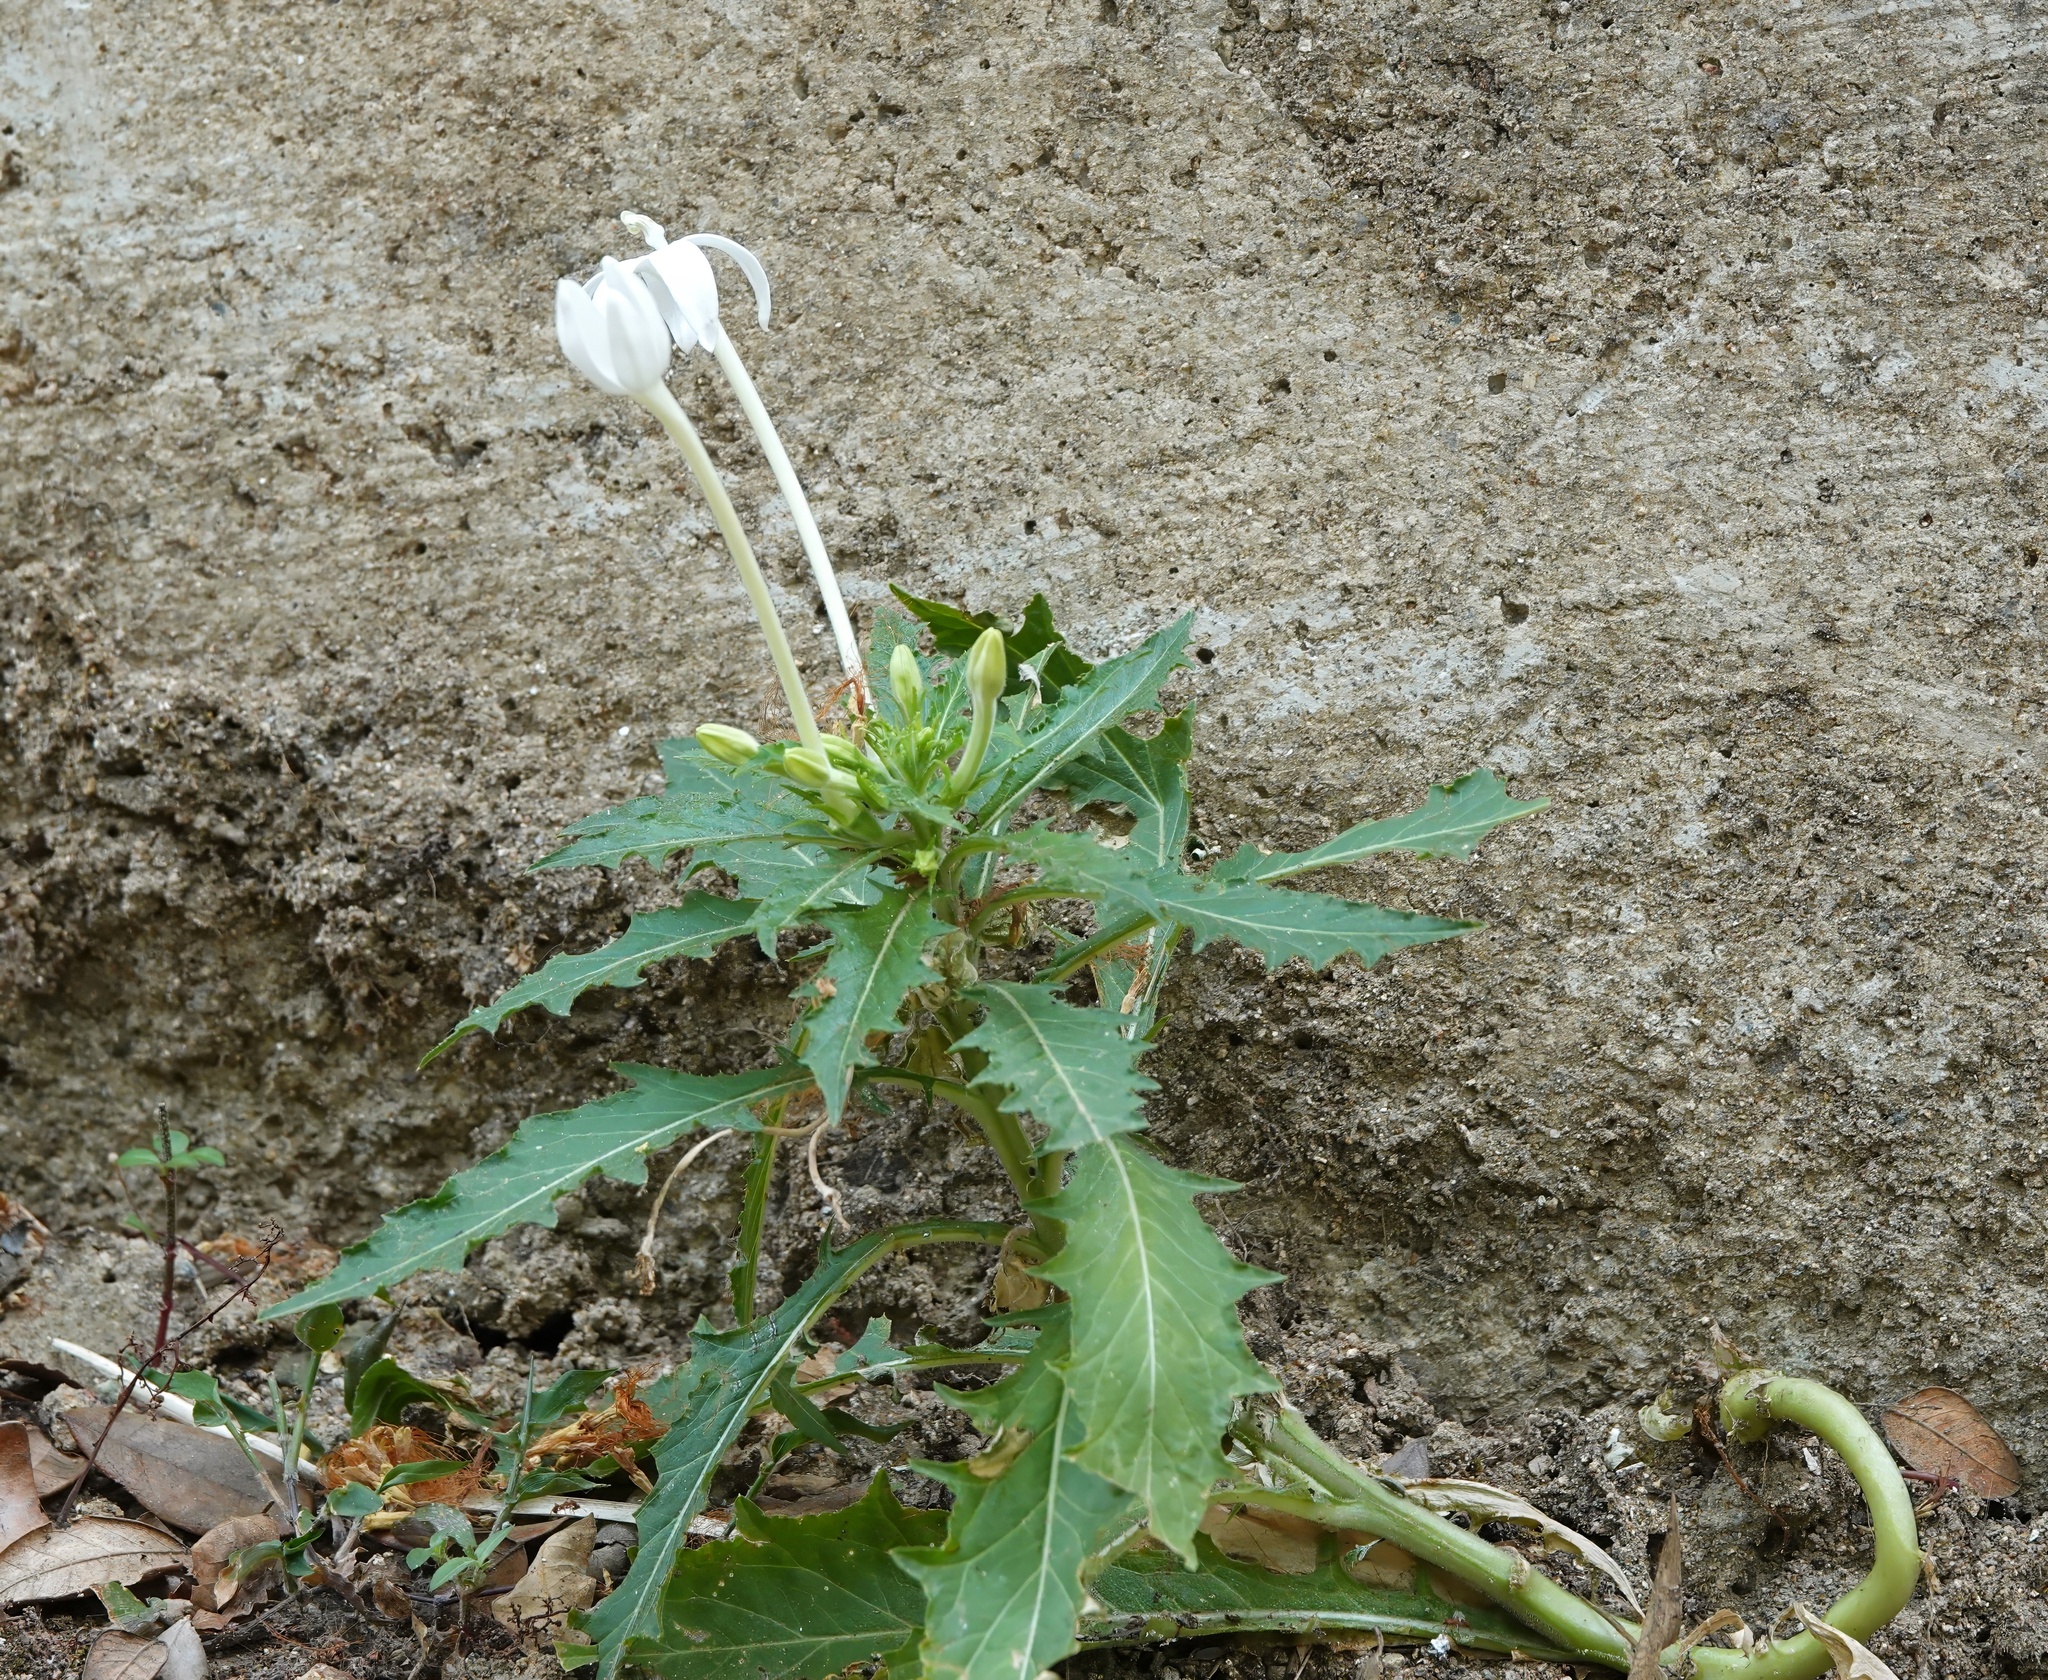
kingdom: Plantae
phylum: Tracheophyta
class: Magnoliopsida
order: Asterales
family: Campanulaceae
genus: Hippobroma
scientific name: Hippobroma longiflora
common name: Madamfate
